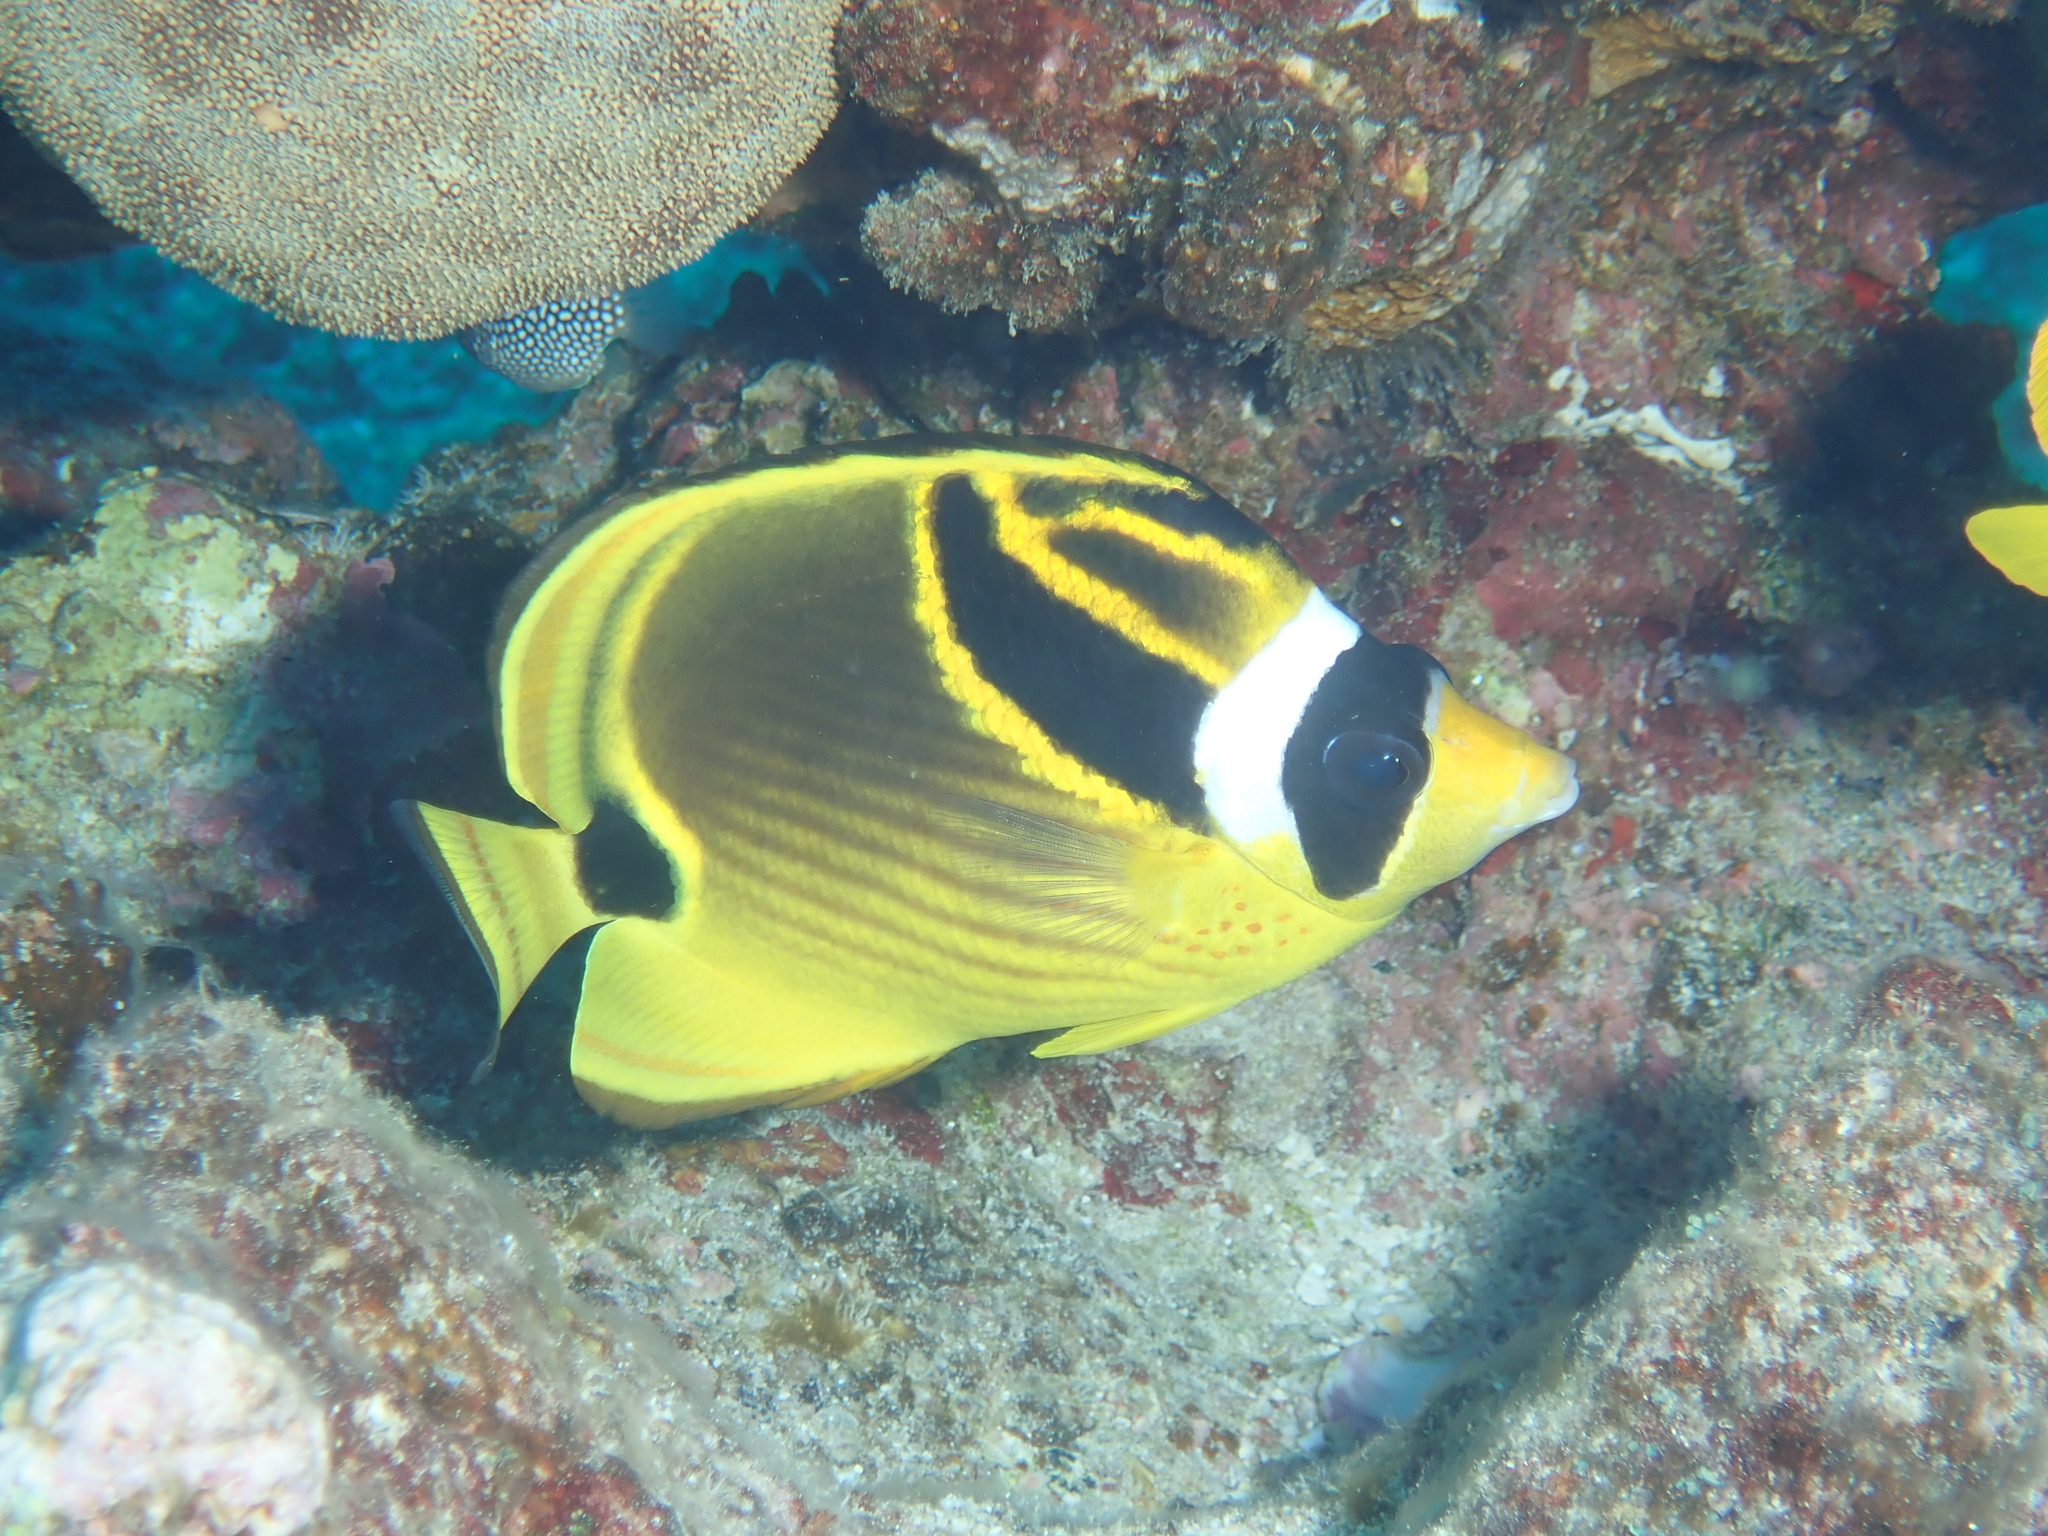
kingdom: Animalia
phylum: Chordata
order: Perciformes
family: Chaetodontidae
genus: Chaetodon
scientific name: Chaetodon lunula
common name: Raccoon butterflyfish
